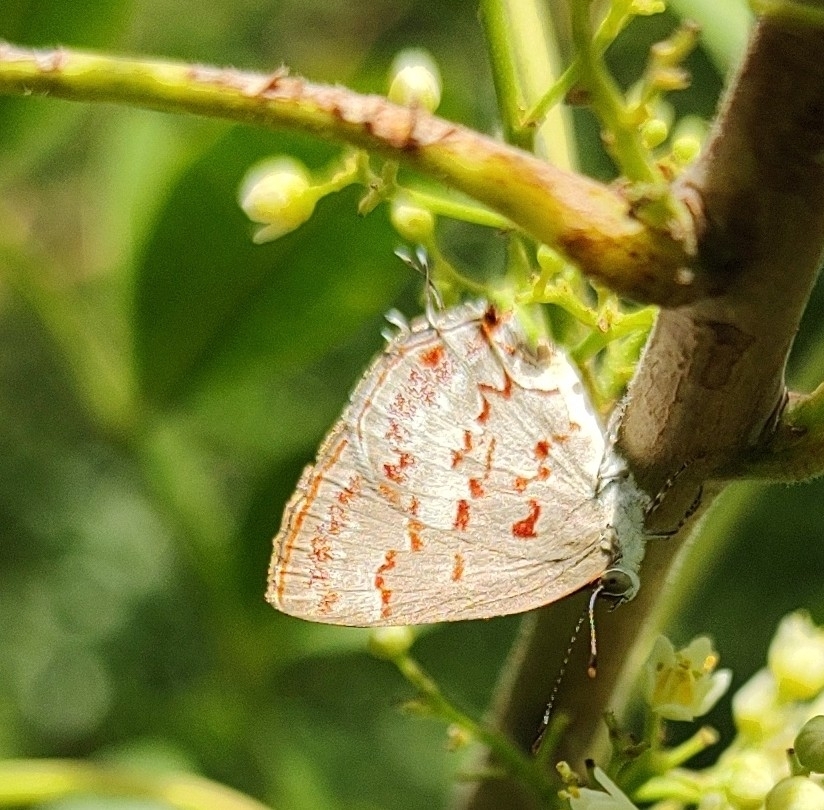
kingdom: Animalia
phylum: Arthropoda
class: Insecta
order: Lepidoptera
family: Lycaenidae
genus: Thecla
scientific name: Thecla cruenta
